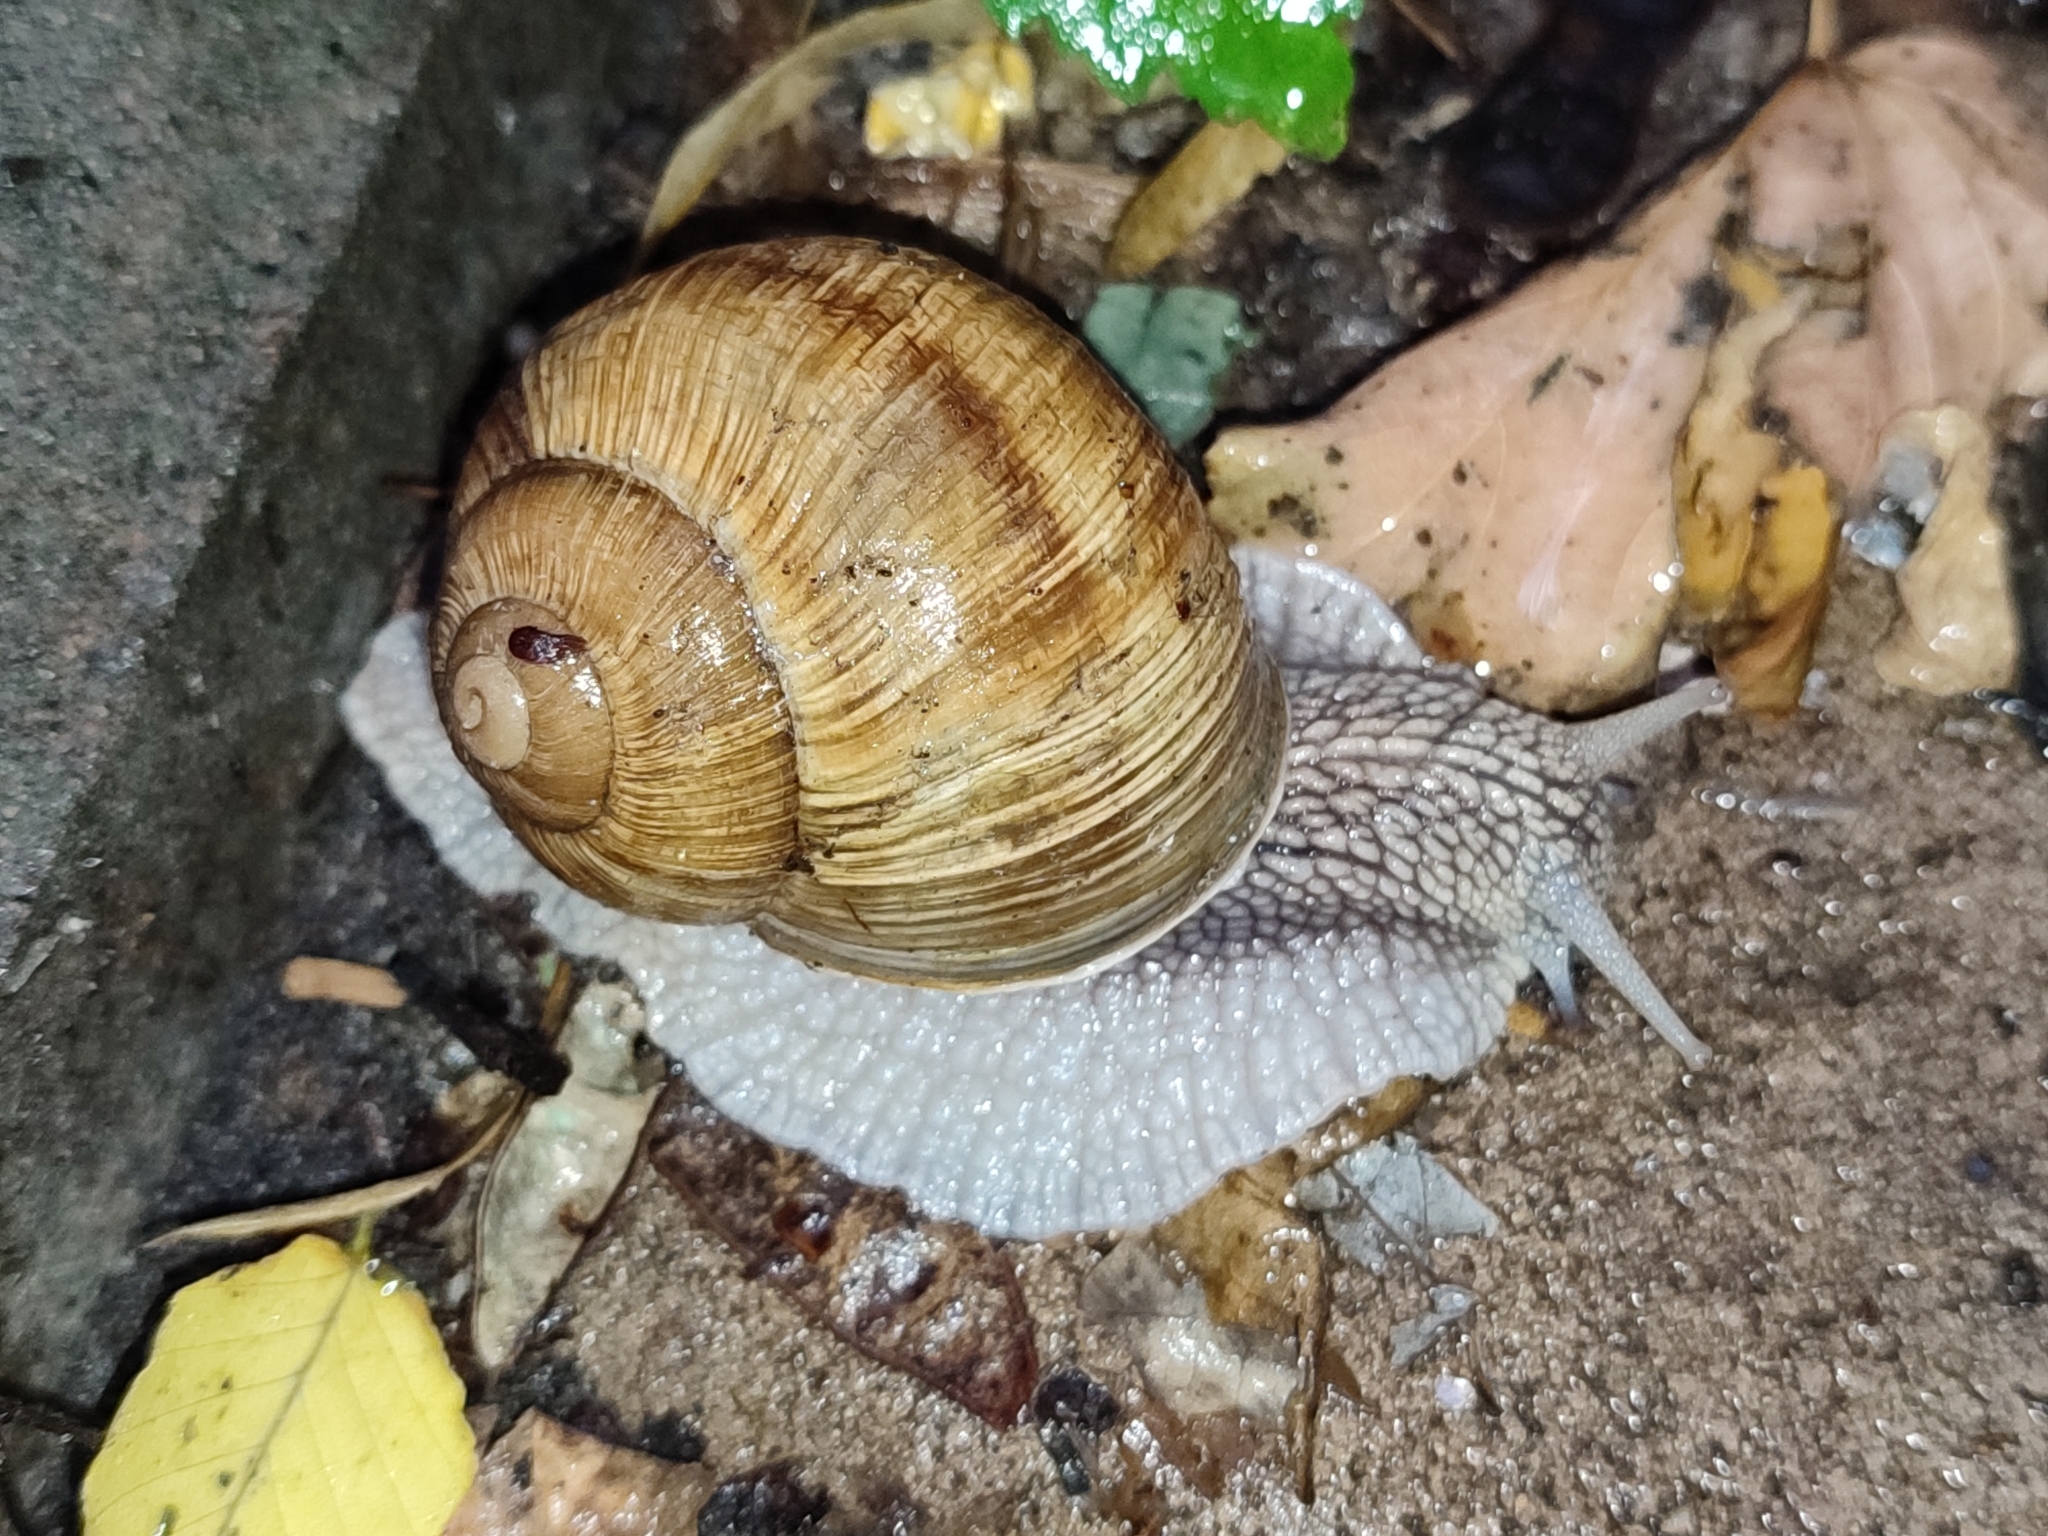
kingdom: Animalia
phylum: Mollusca
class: Gastropoda
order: Stylommatophora
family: Helicidae
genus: Helix
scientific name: Helix pomatia
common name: Roman snail
